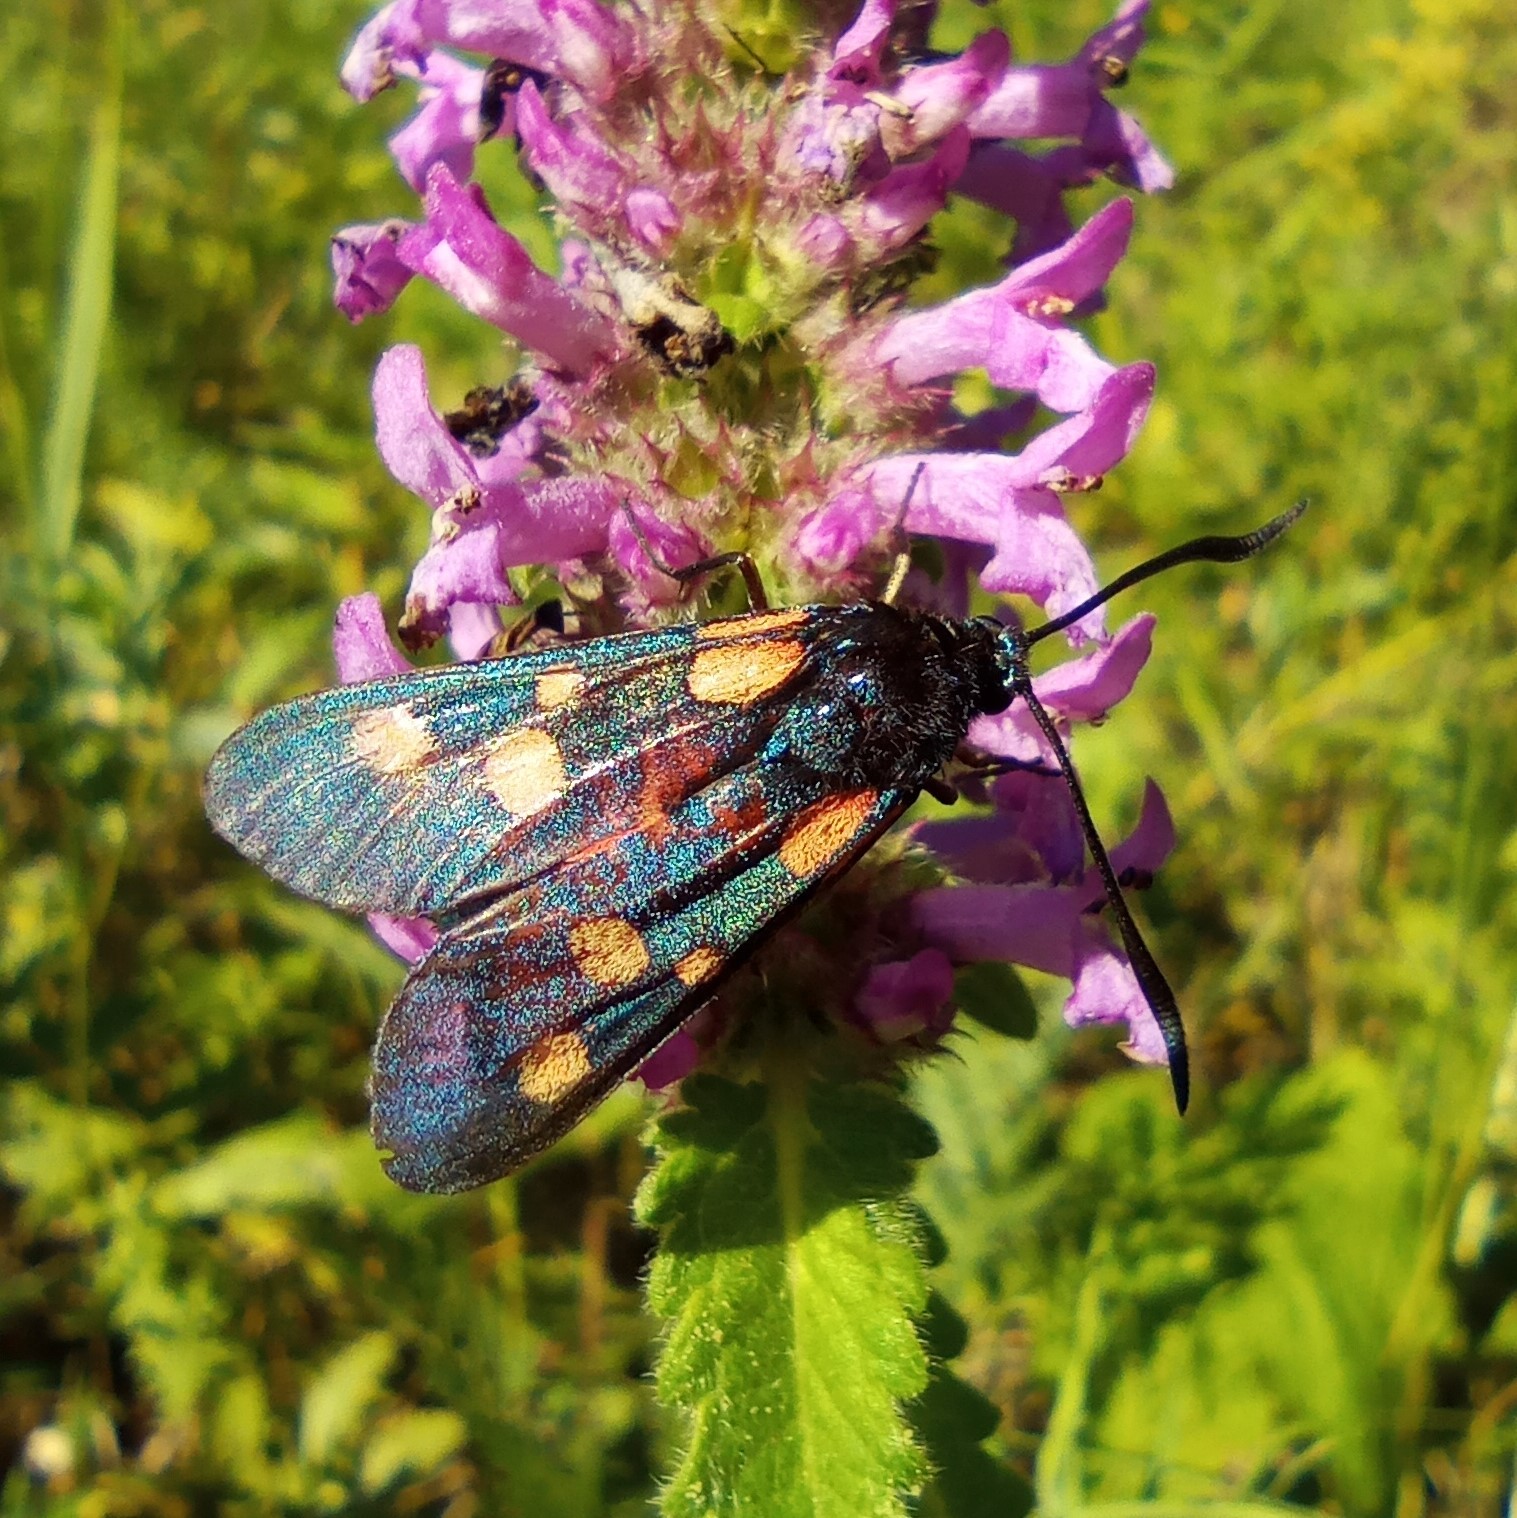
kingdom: Animalia
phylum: Arthropoda
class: Insecta
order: Lepidoptera
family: Zygaenidae
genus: Zygaena
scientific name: Zygaena lonicerae
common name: Narrow-bordered five-spot burnet
